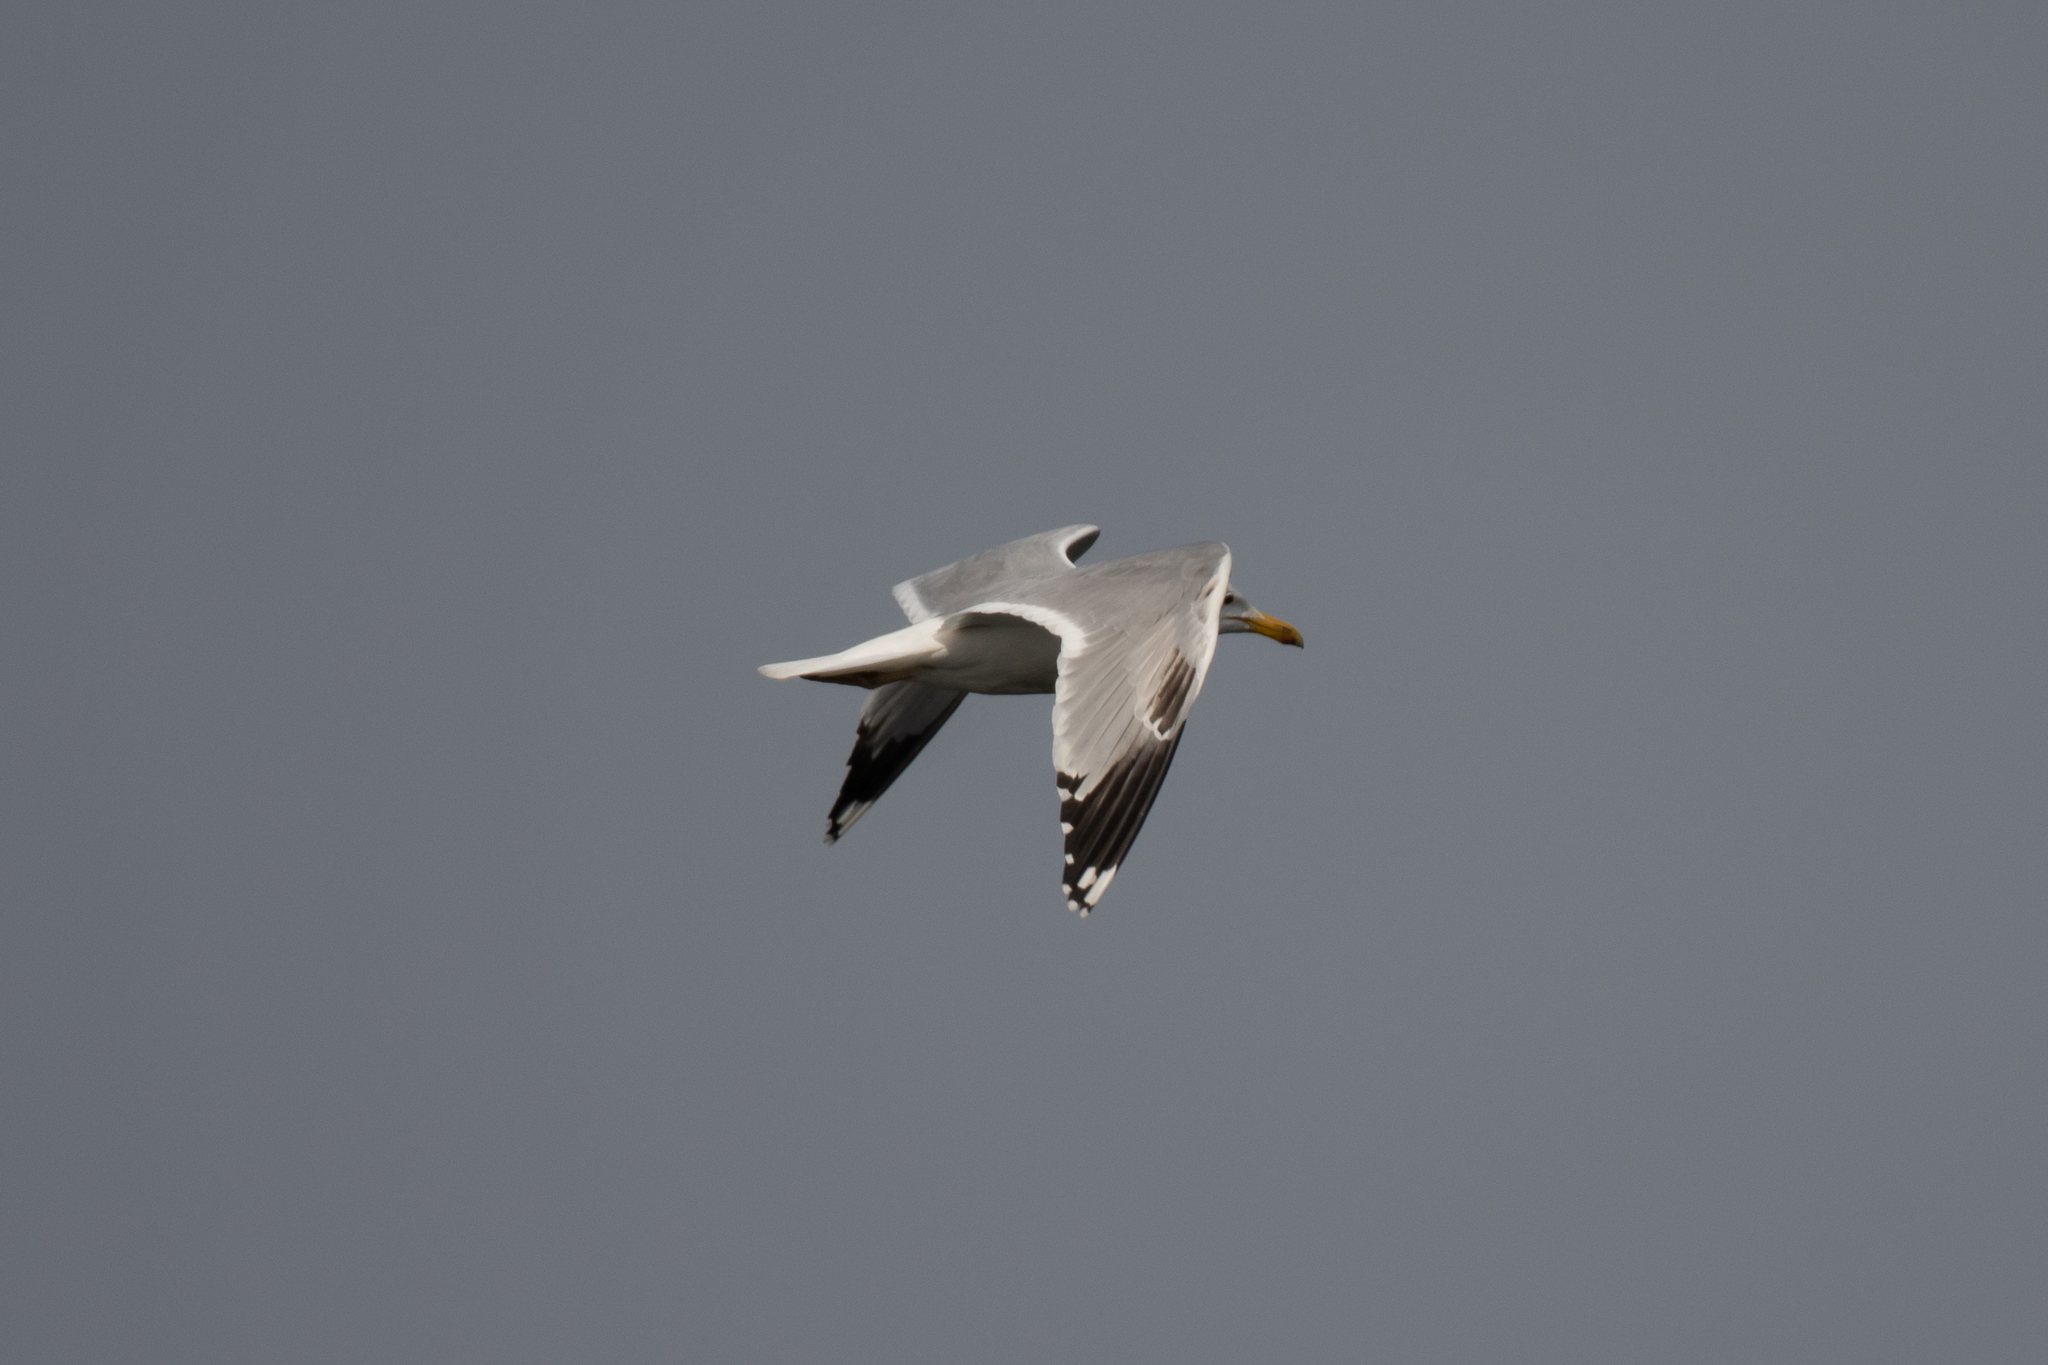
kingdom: Animalia
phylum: Chordata
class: Aves
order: Charadriiformes
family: Laridae
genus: Larus
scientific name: Larus cachinnans
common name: Caspian gull
